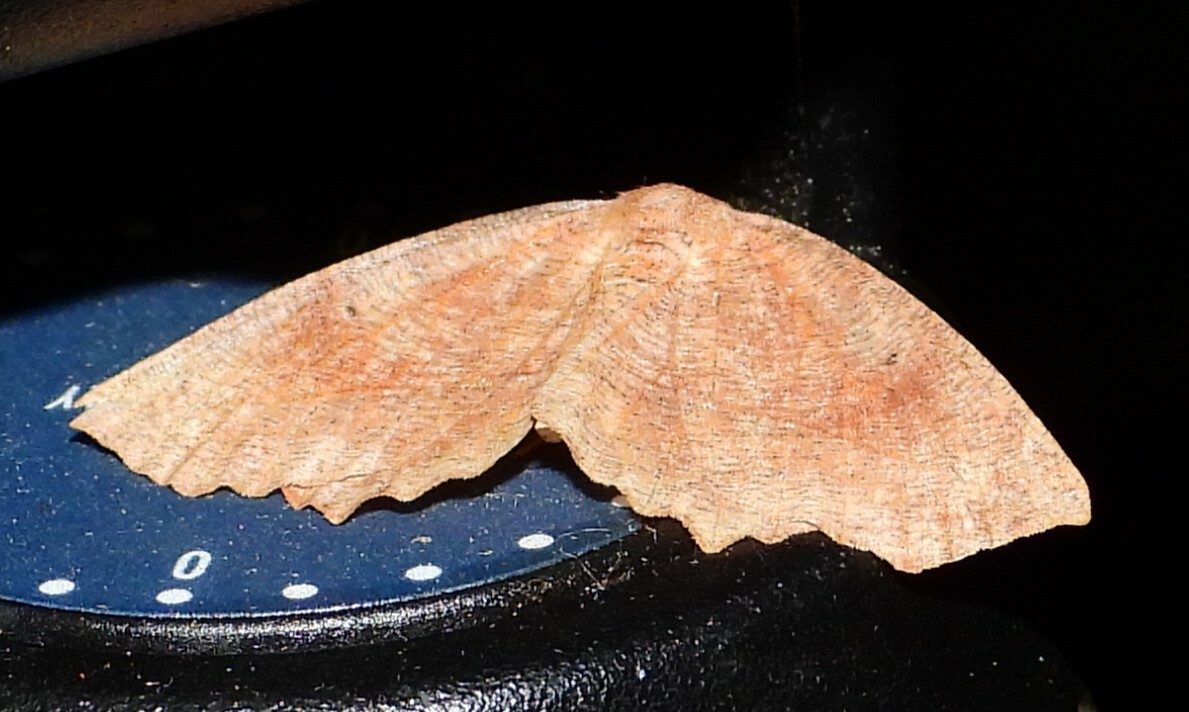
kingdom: Animalia
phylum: Arthropoda
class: Insecta
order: Lepidoptera
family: Geometridae
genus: Eutrapela
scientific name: Eutrapela clemataria
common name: Curved-toothed geometer
